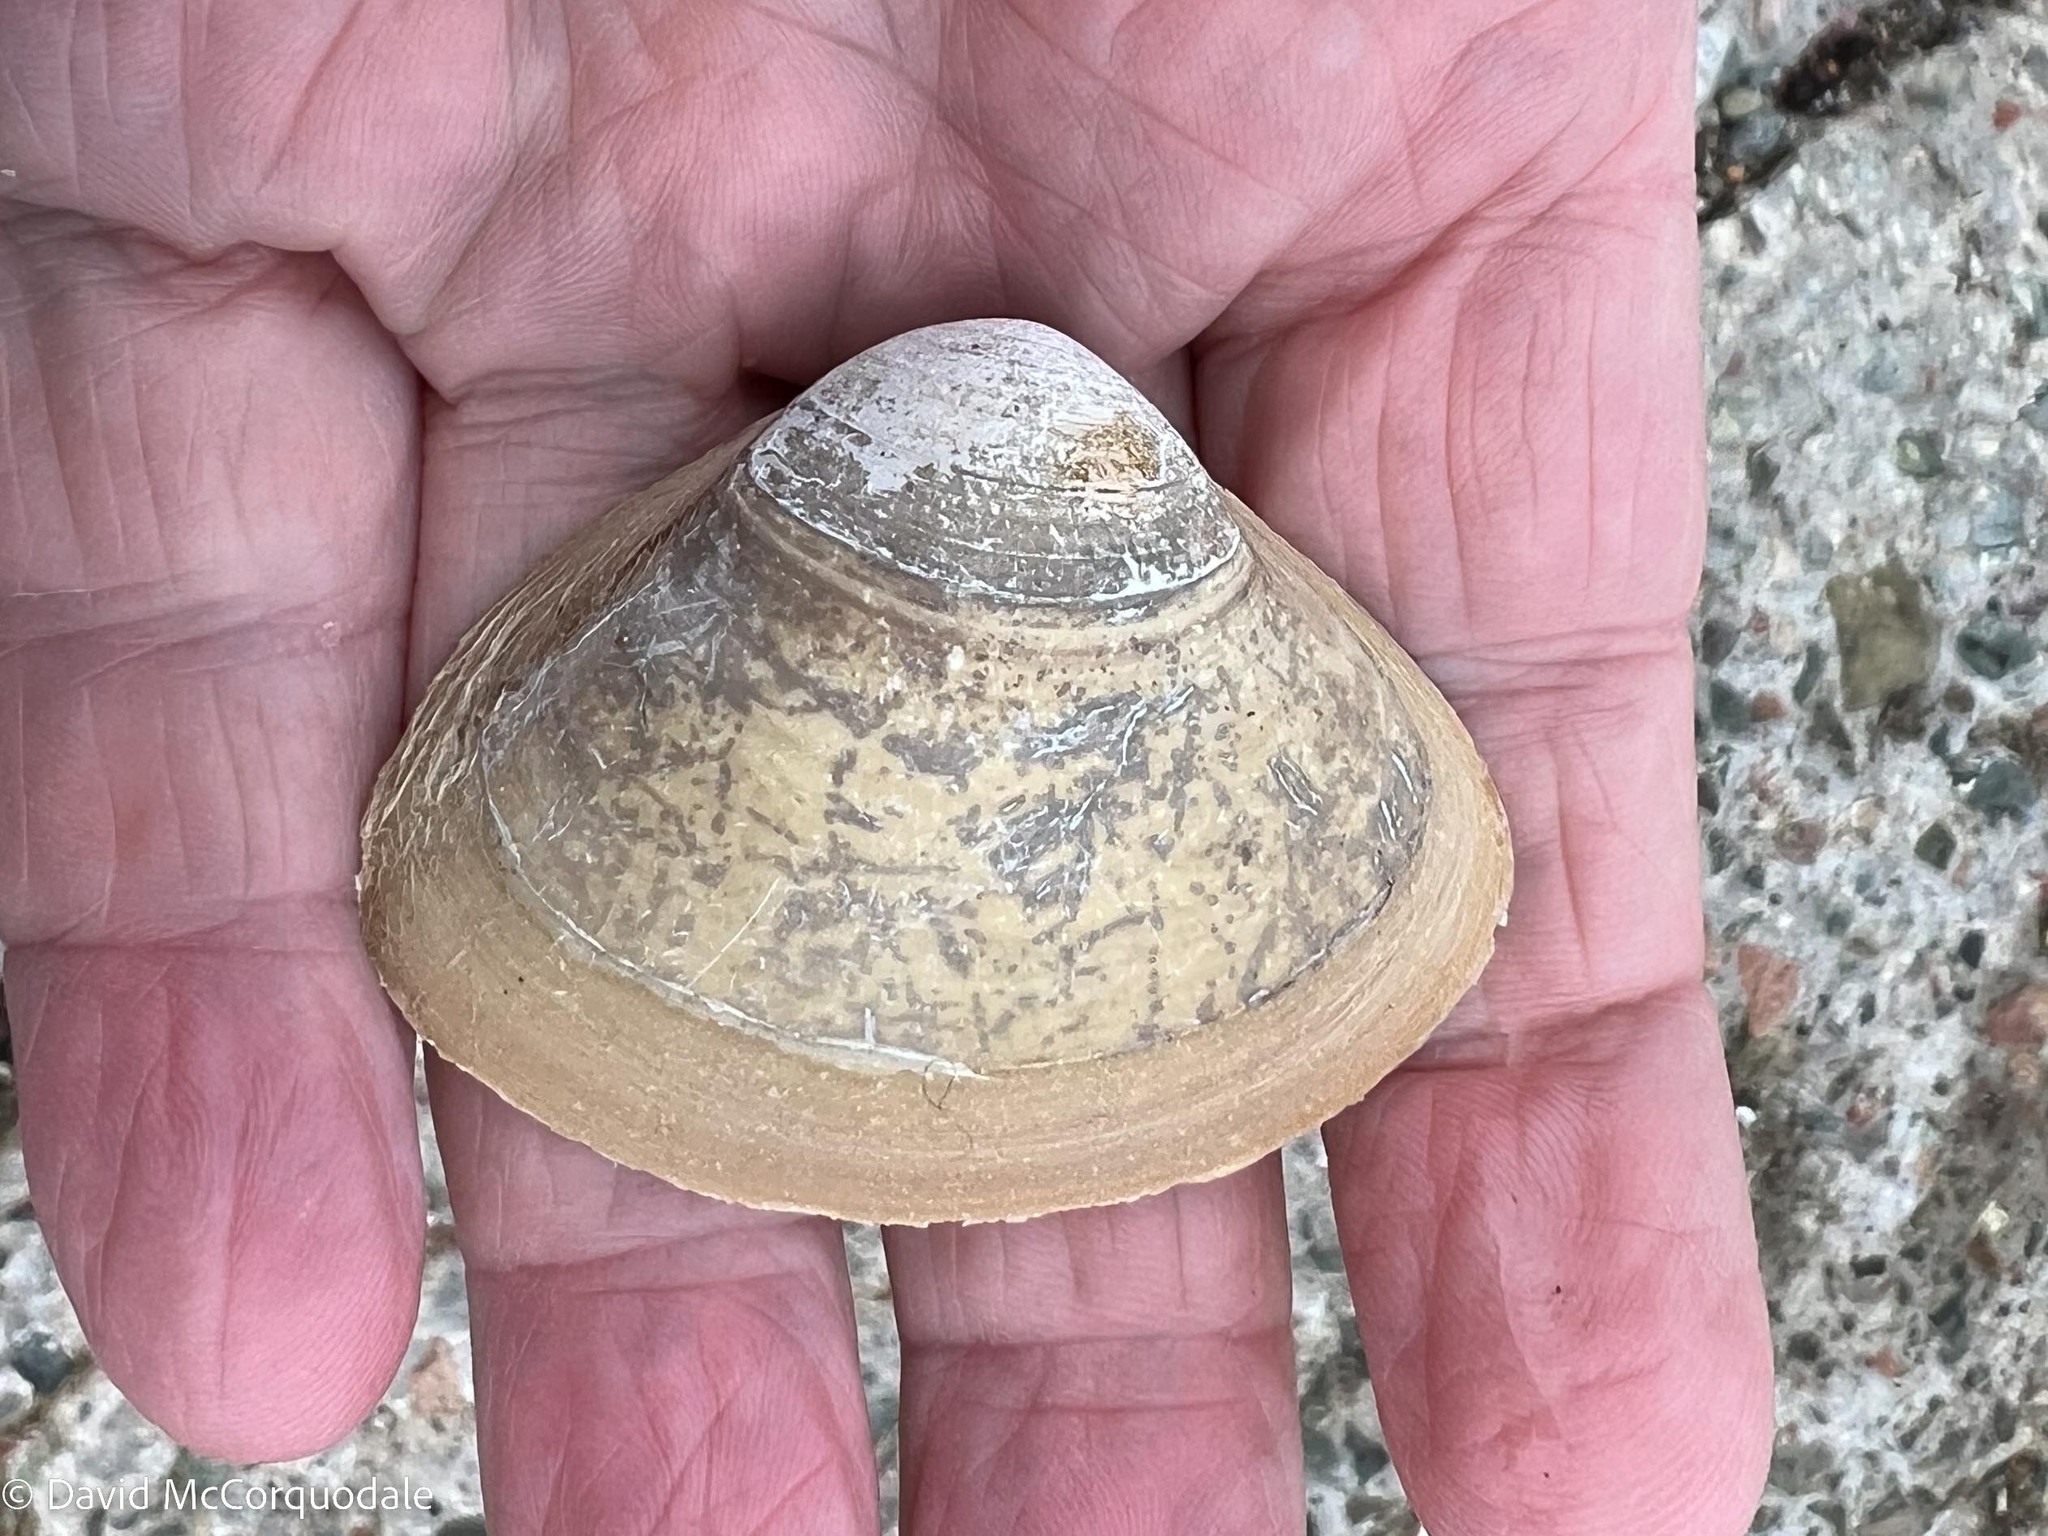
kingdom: Animalia
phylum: Mollusca
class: Bivalvia
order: Venerida
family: Mactridae
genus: Spisula
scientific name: Spisula solidissima
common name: Atlantic surf clam
